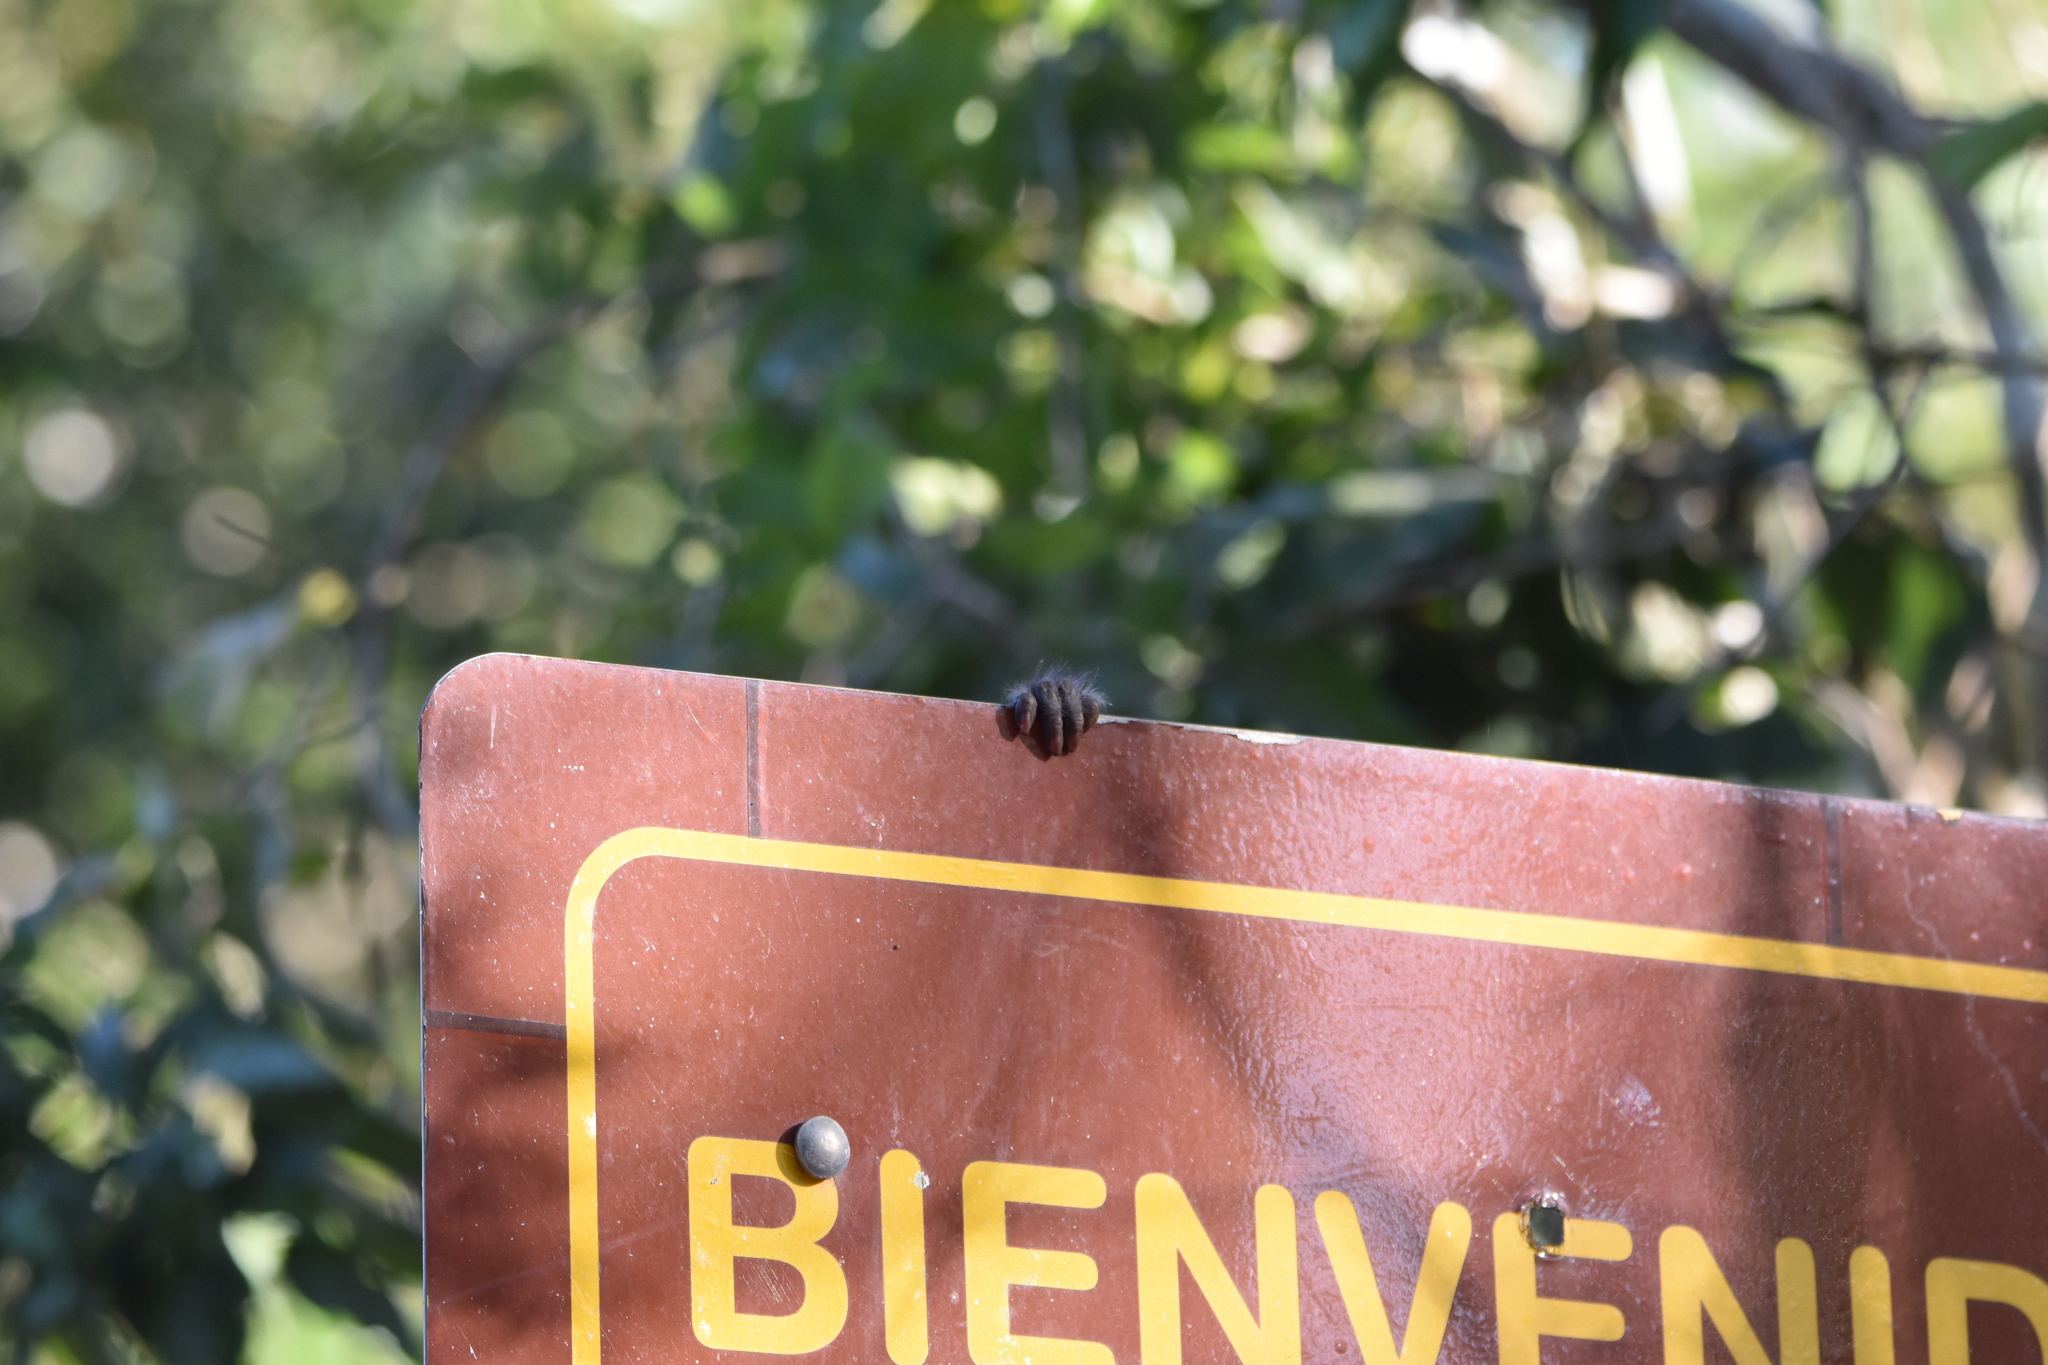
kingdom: Animalia
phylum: Chordata
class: Mammalia
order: Primates
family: Cebidae
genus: Sapajus
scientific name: Sapajus nigritus
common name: Black capuchin
